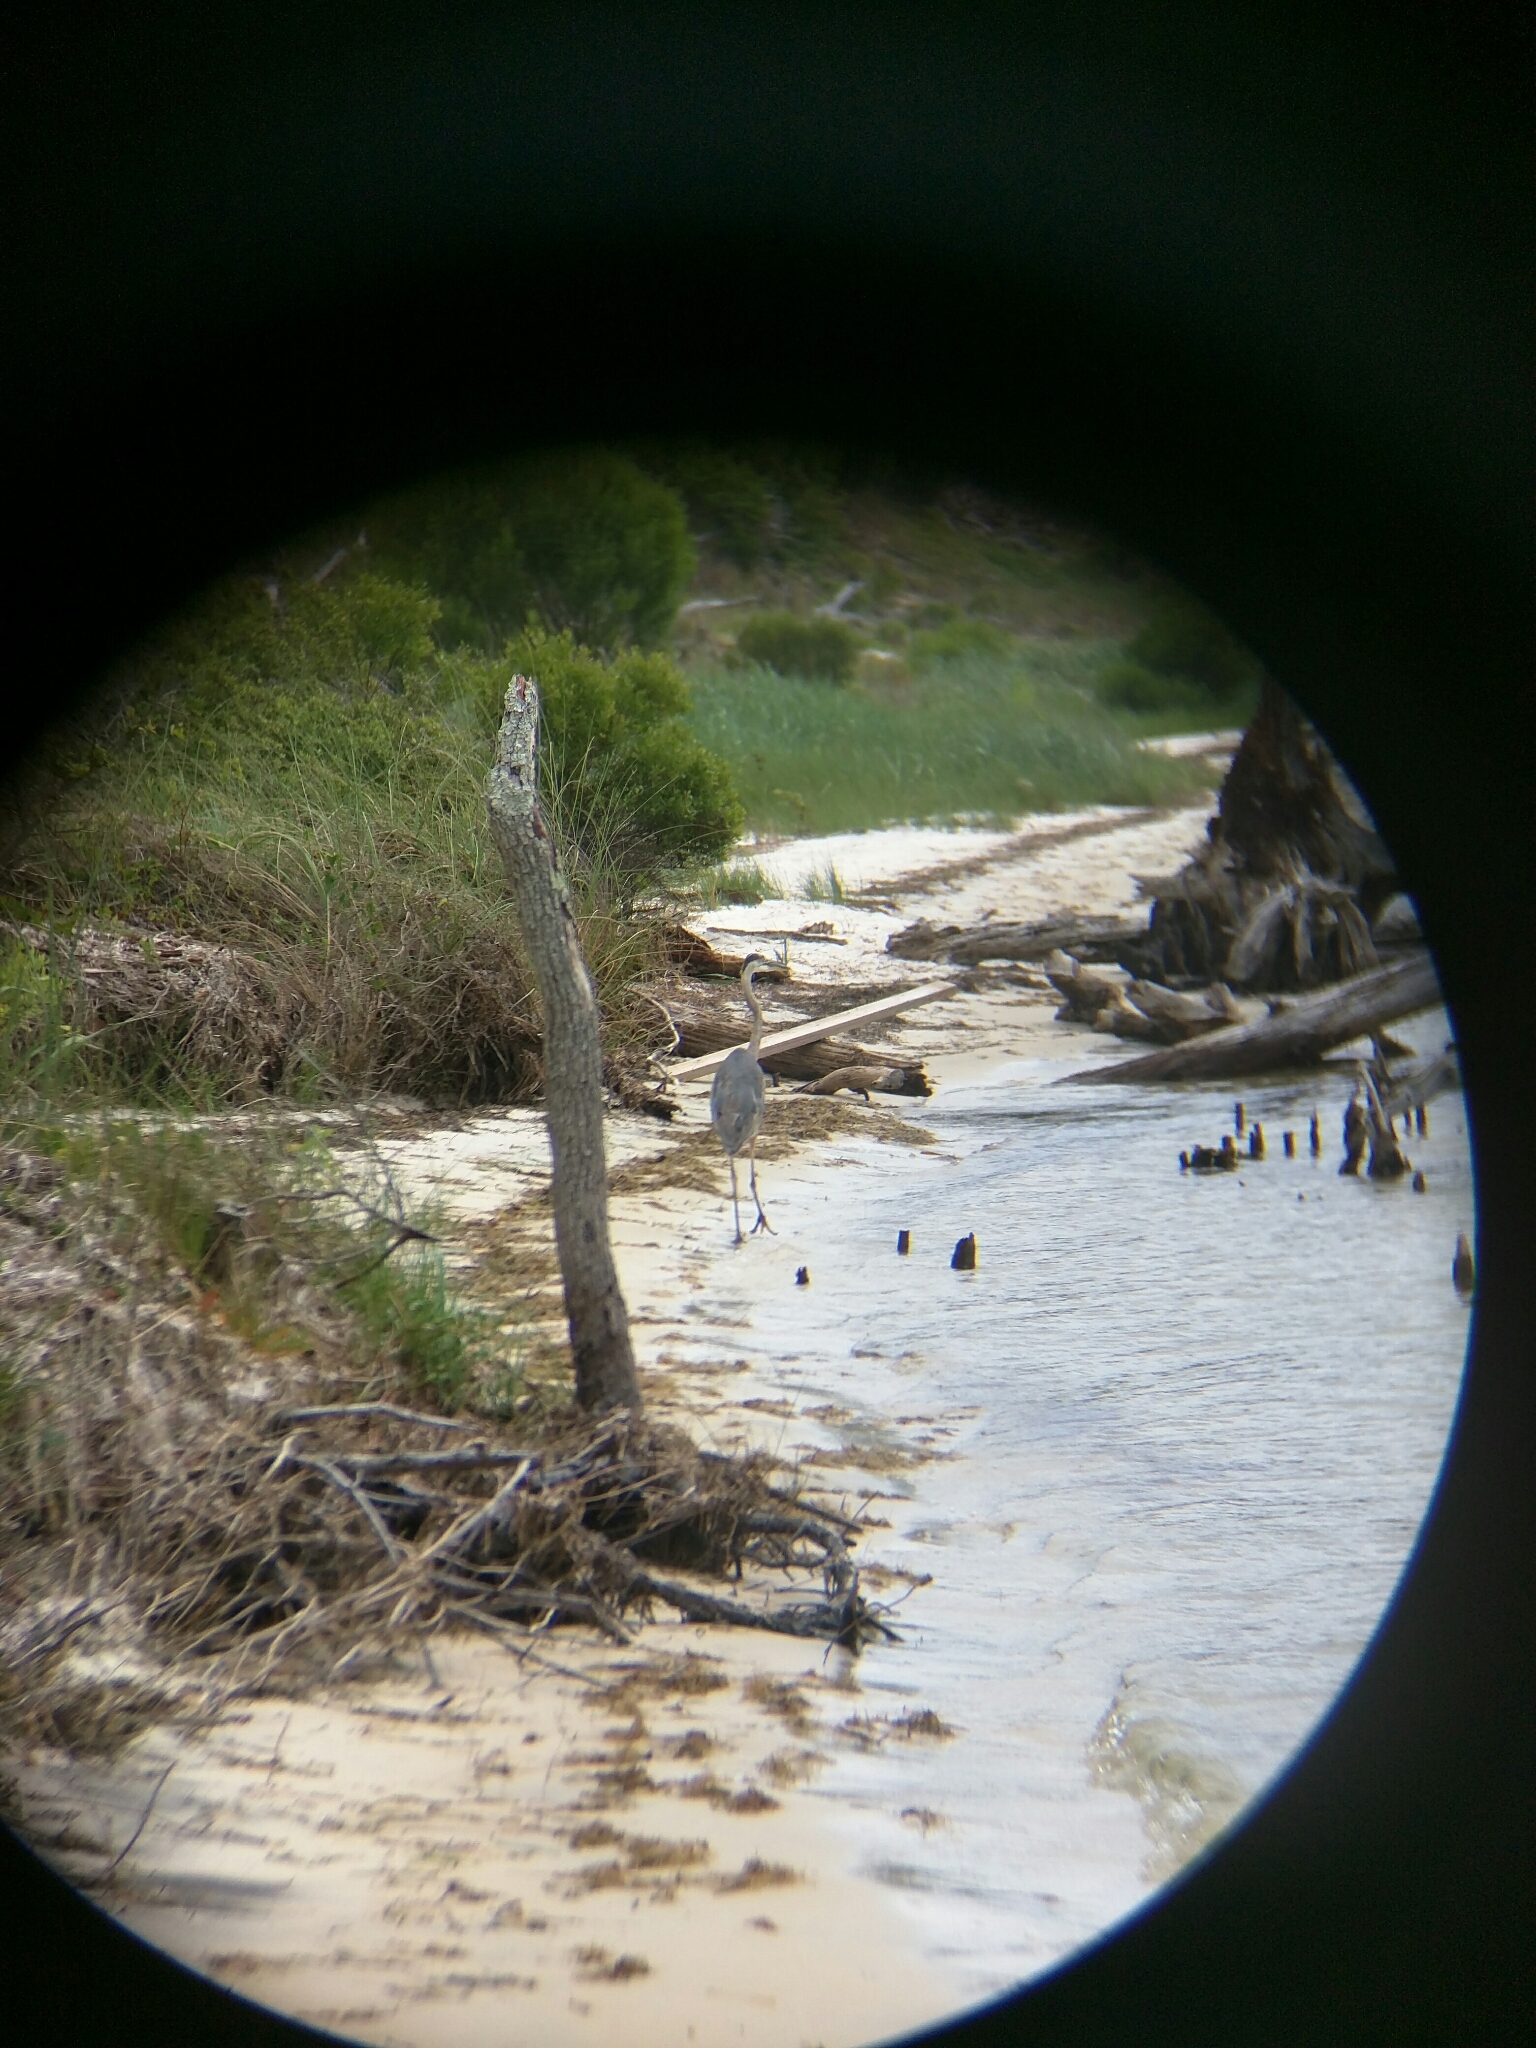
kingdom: Animalia
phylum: Chordata
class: Aves
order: Pelecaniformes
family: Ardeidae
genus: Ardea
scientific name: Ardea herodias
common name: Great blue heron
